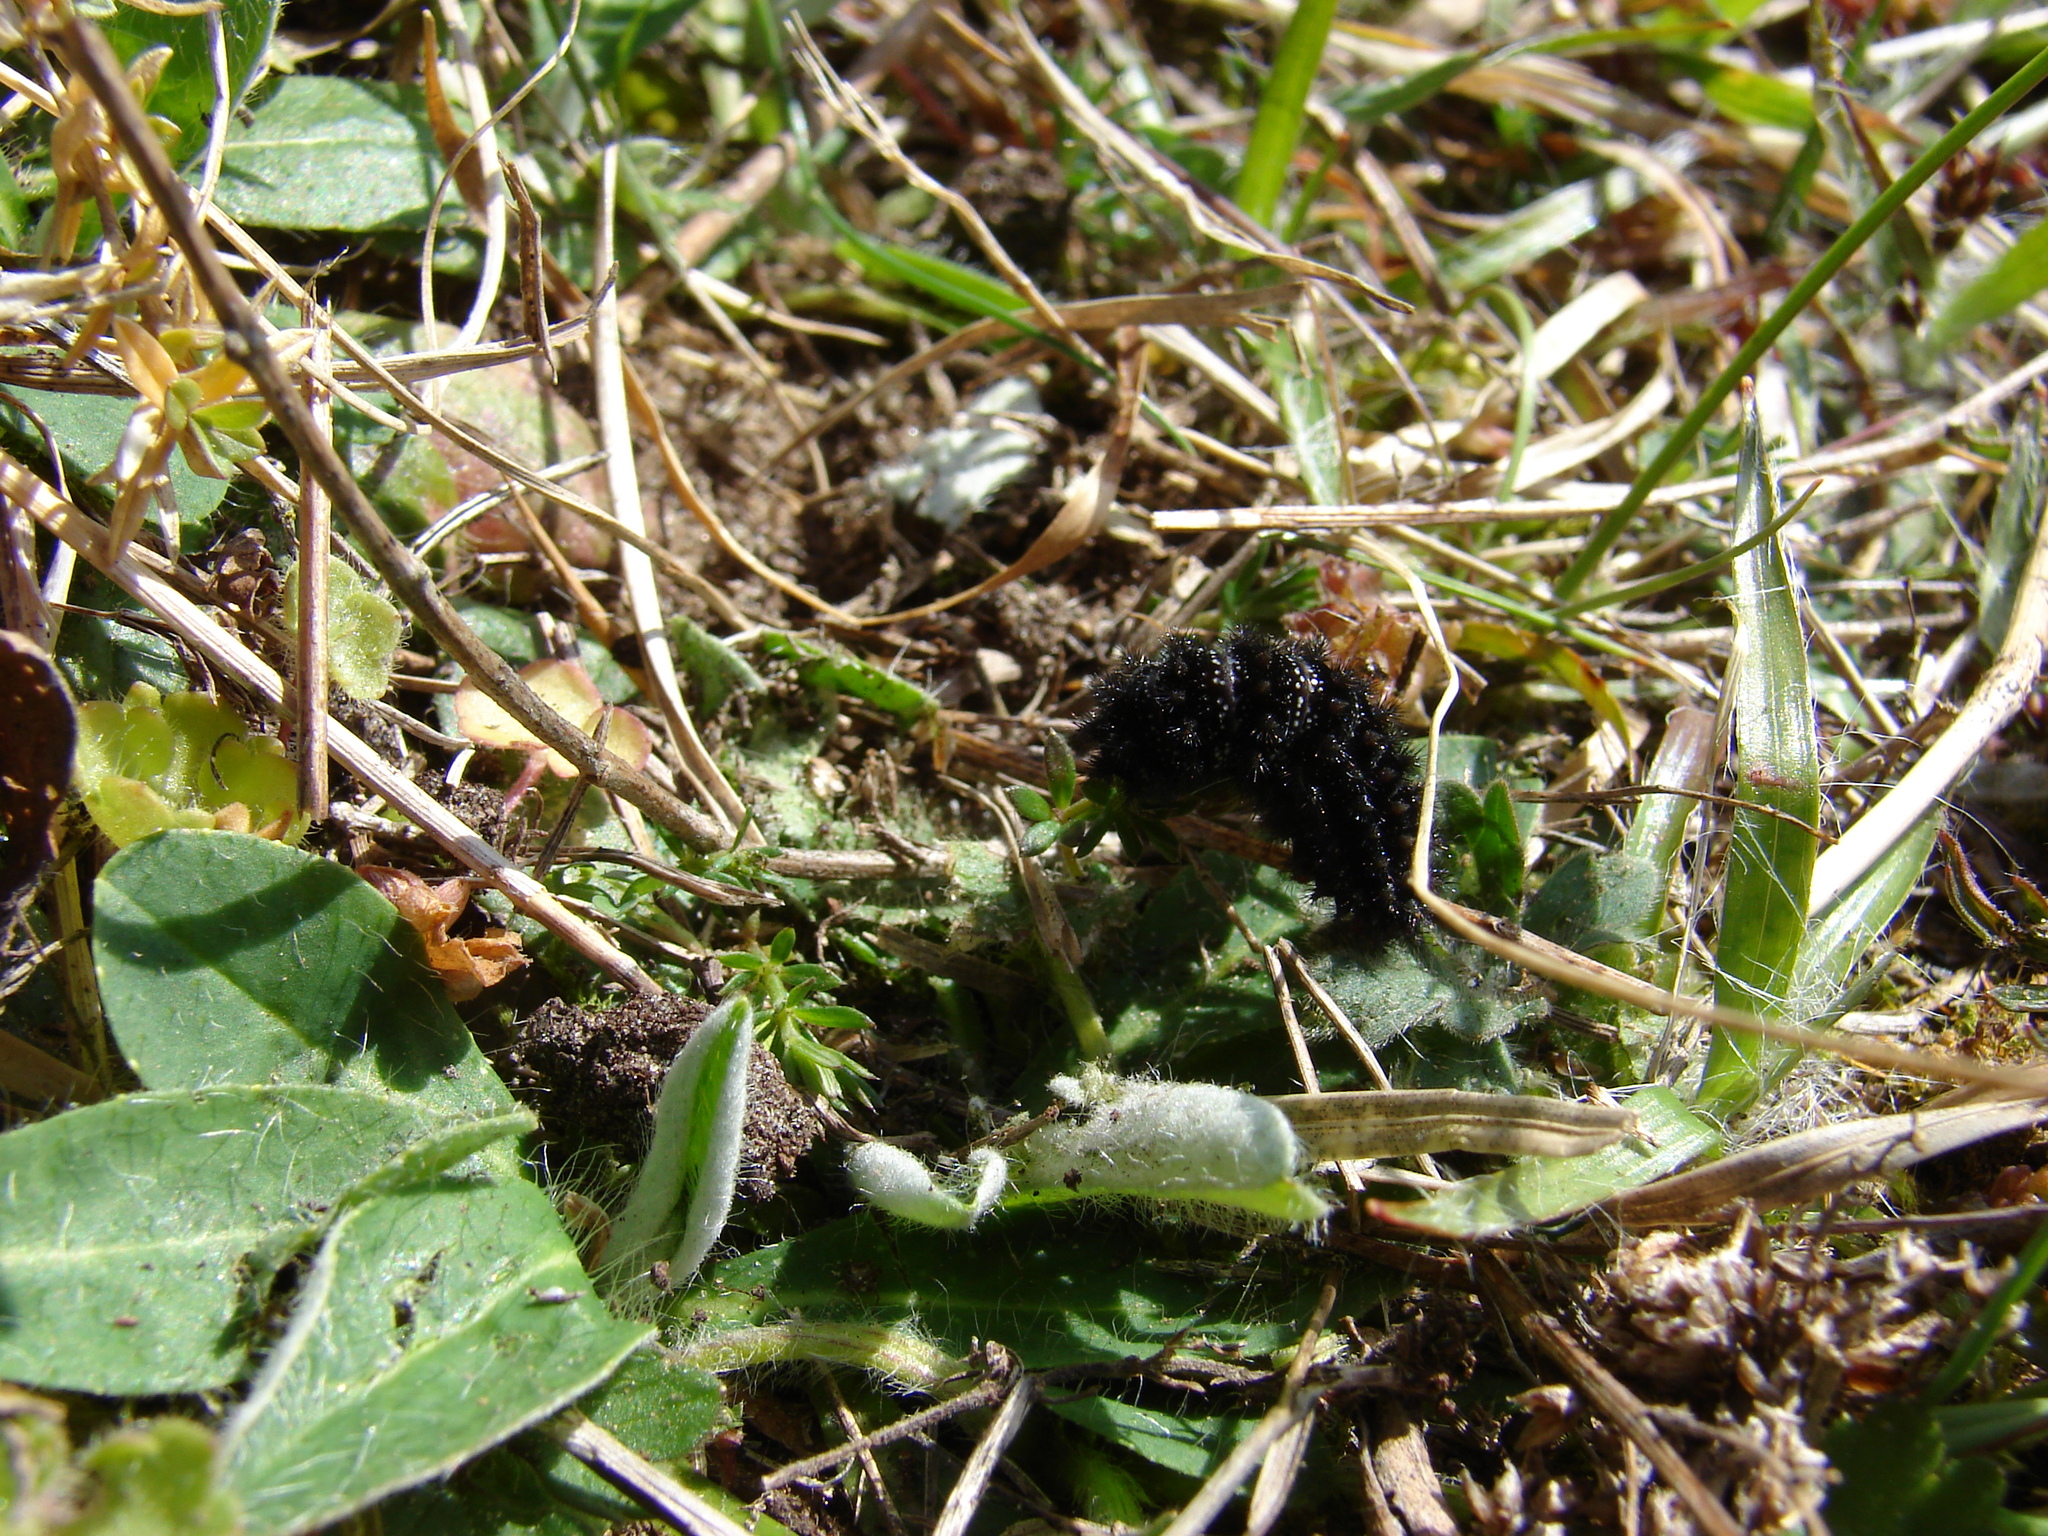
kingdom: Animalia
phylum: Arthropoda
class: Insecta
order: Lepidoptera
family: Nymphalidae
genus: Melitaea
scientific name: Melitaea cinxia
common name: Glanville fritillary
